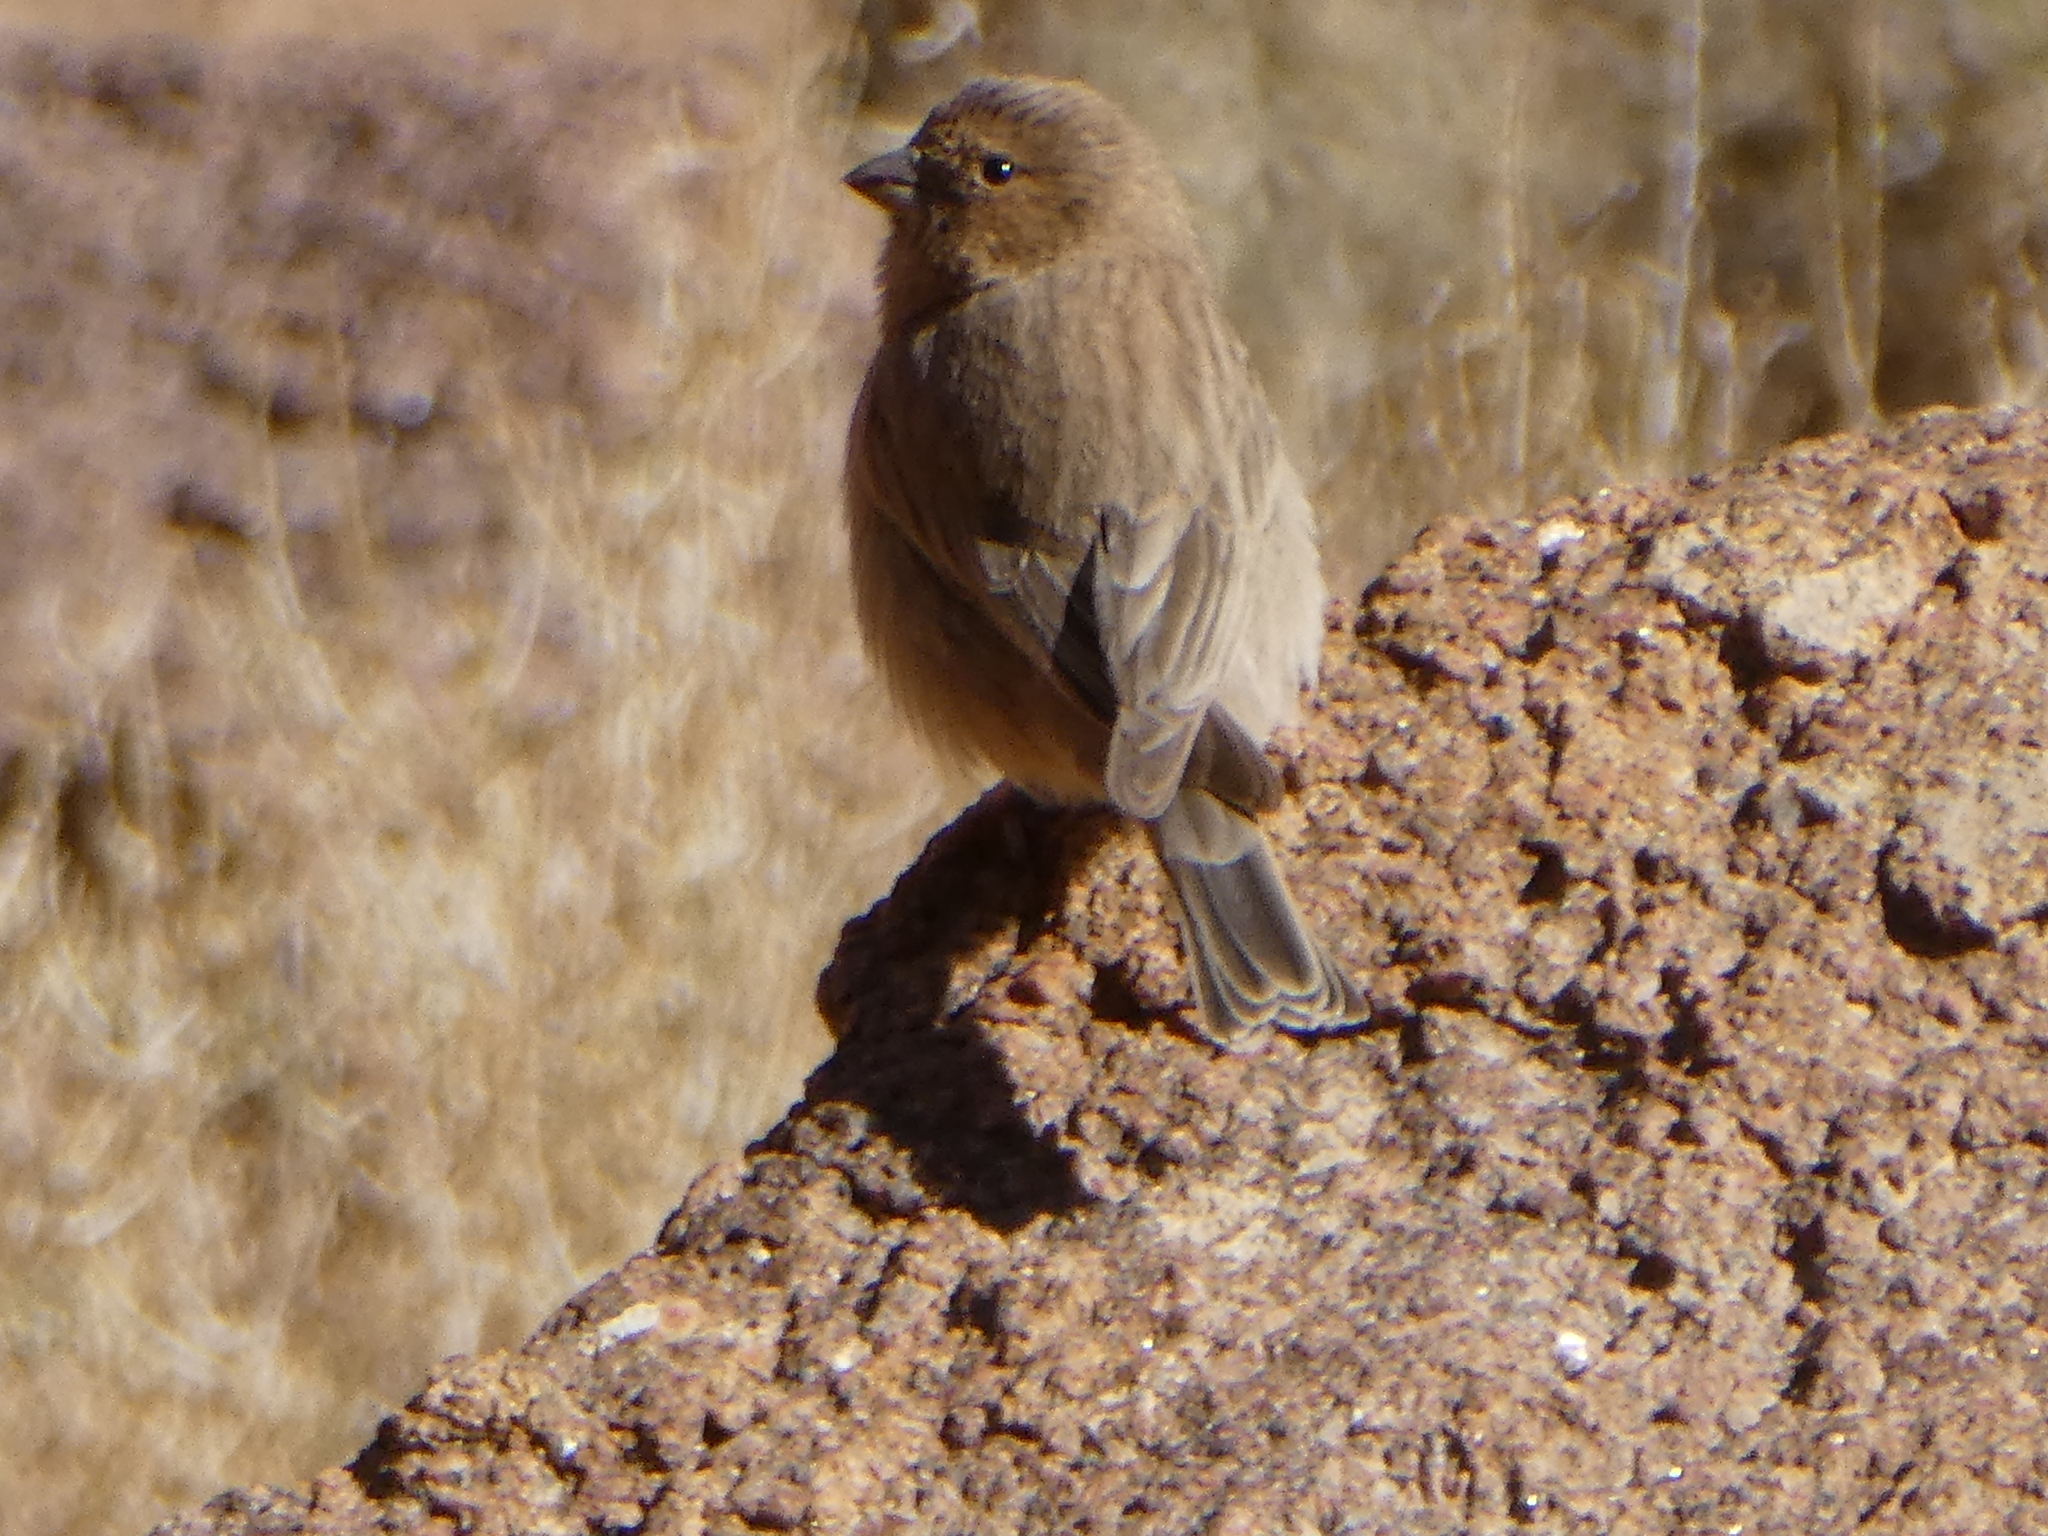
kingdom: Animalia
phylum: Chordata
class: Aves
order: Passeriformes
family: Fringillidae
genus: Carpodacus
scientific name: Carpodacus synoicus
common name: Sinai rosefinch
